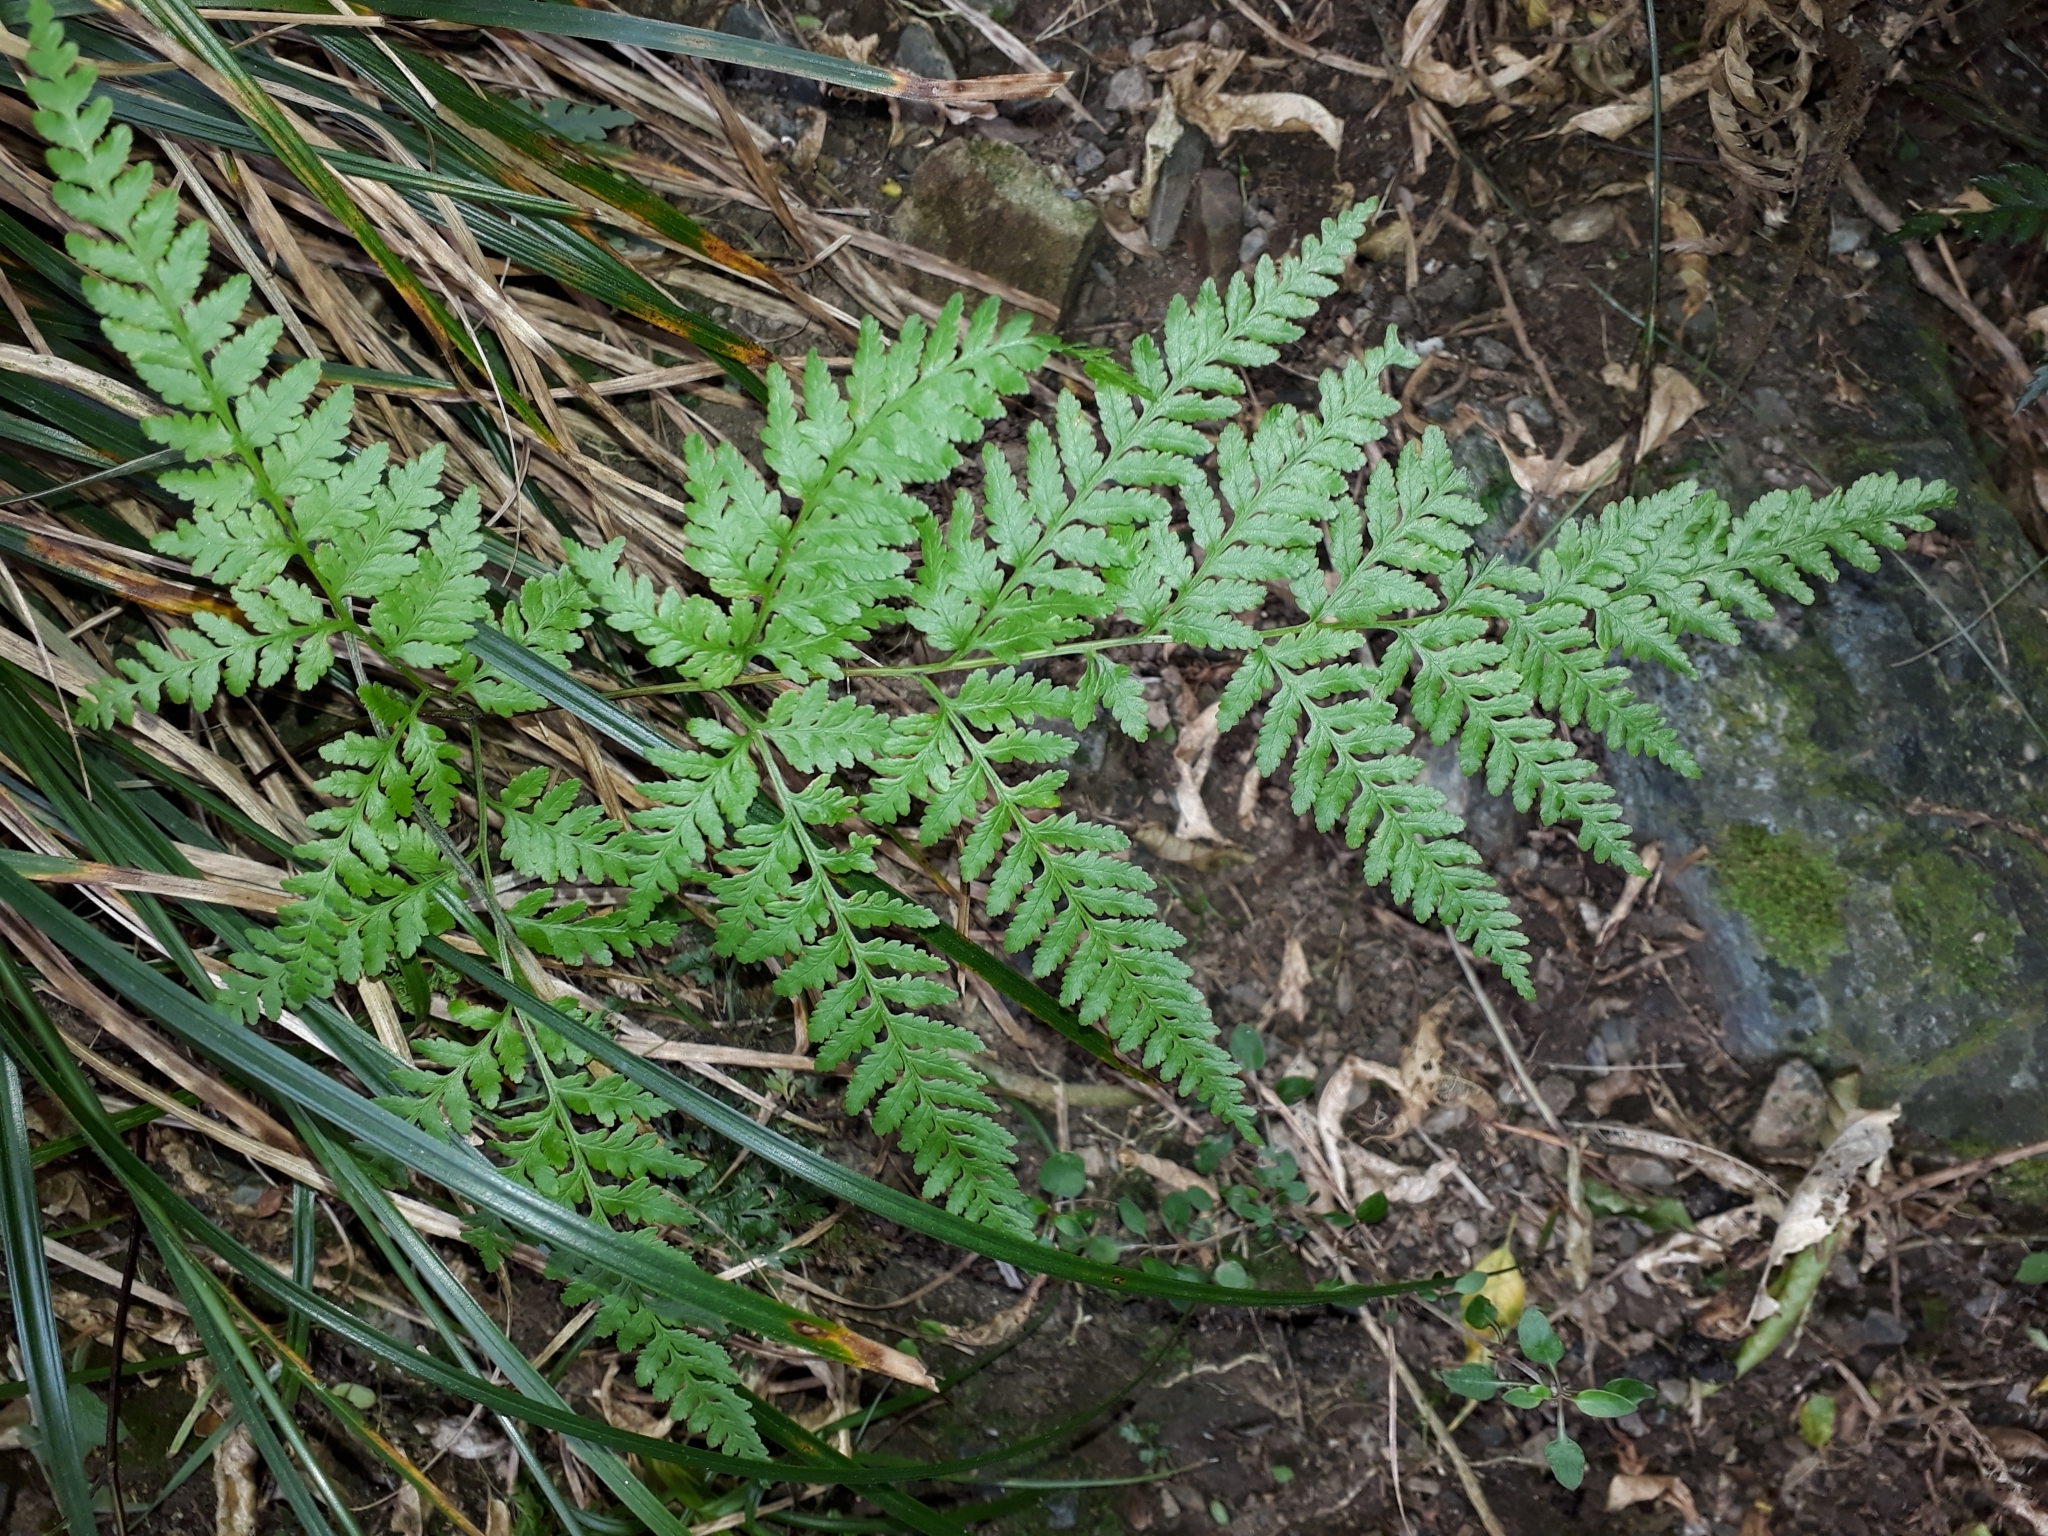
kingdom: Plantae
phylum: Tracheophyta
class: Polypodiopsida
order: Polypodiales
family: Pteridaceae
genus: Pteris
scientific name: Pteris tremula
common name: Australian brake
